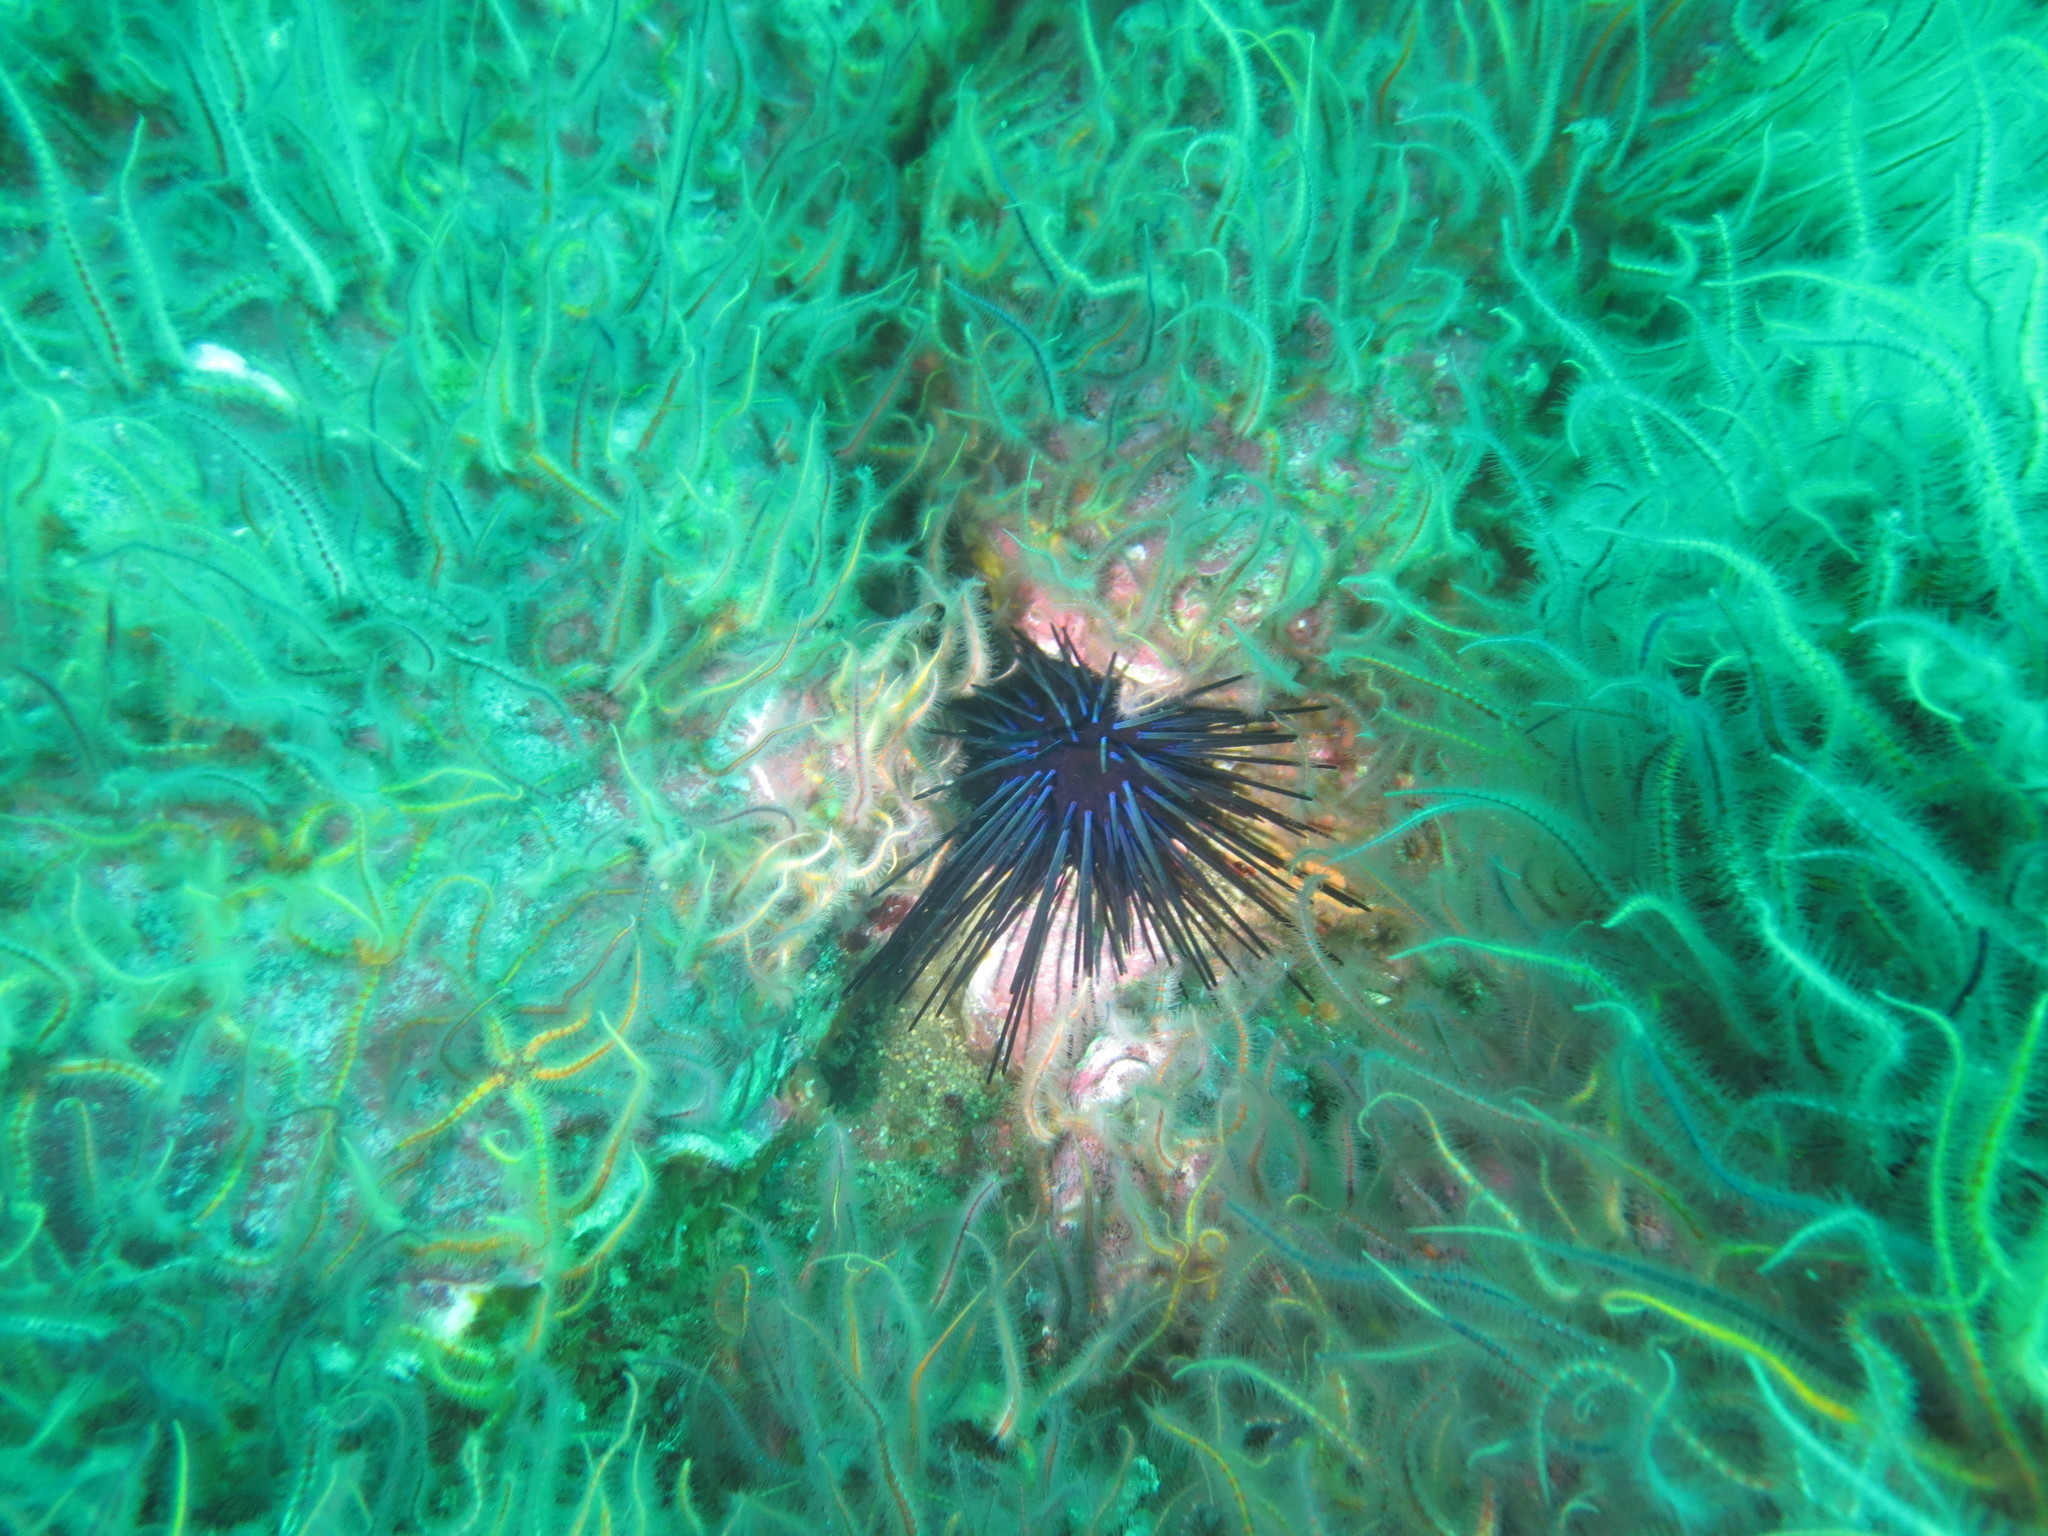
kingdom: Animalia
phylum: Echinodermata
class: Ophiuroidea
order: Amphilepidida
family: Ophiotrichidae
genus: Ophiothrix
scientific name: Ophiothrix spiculata
